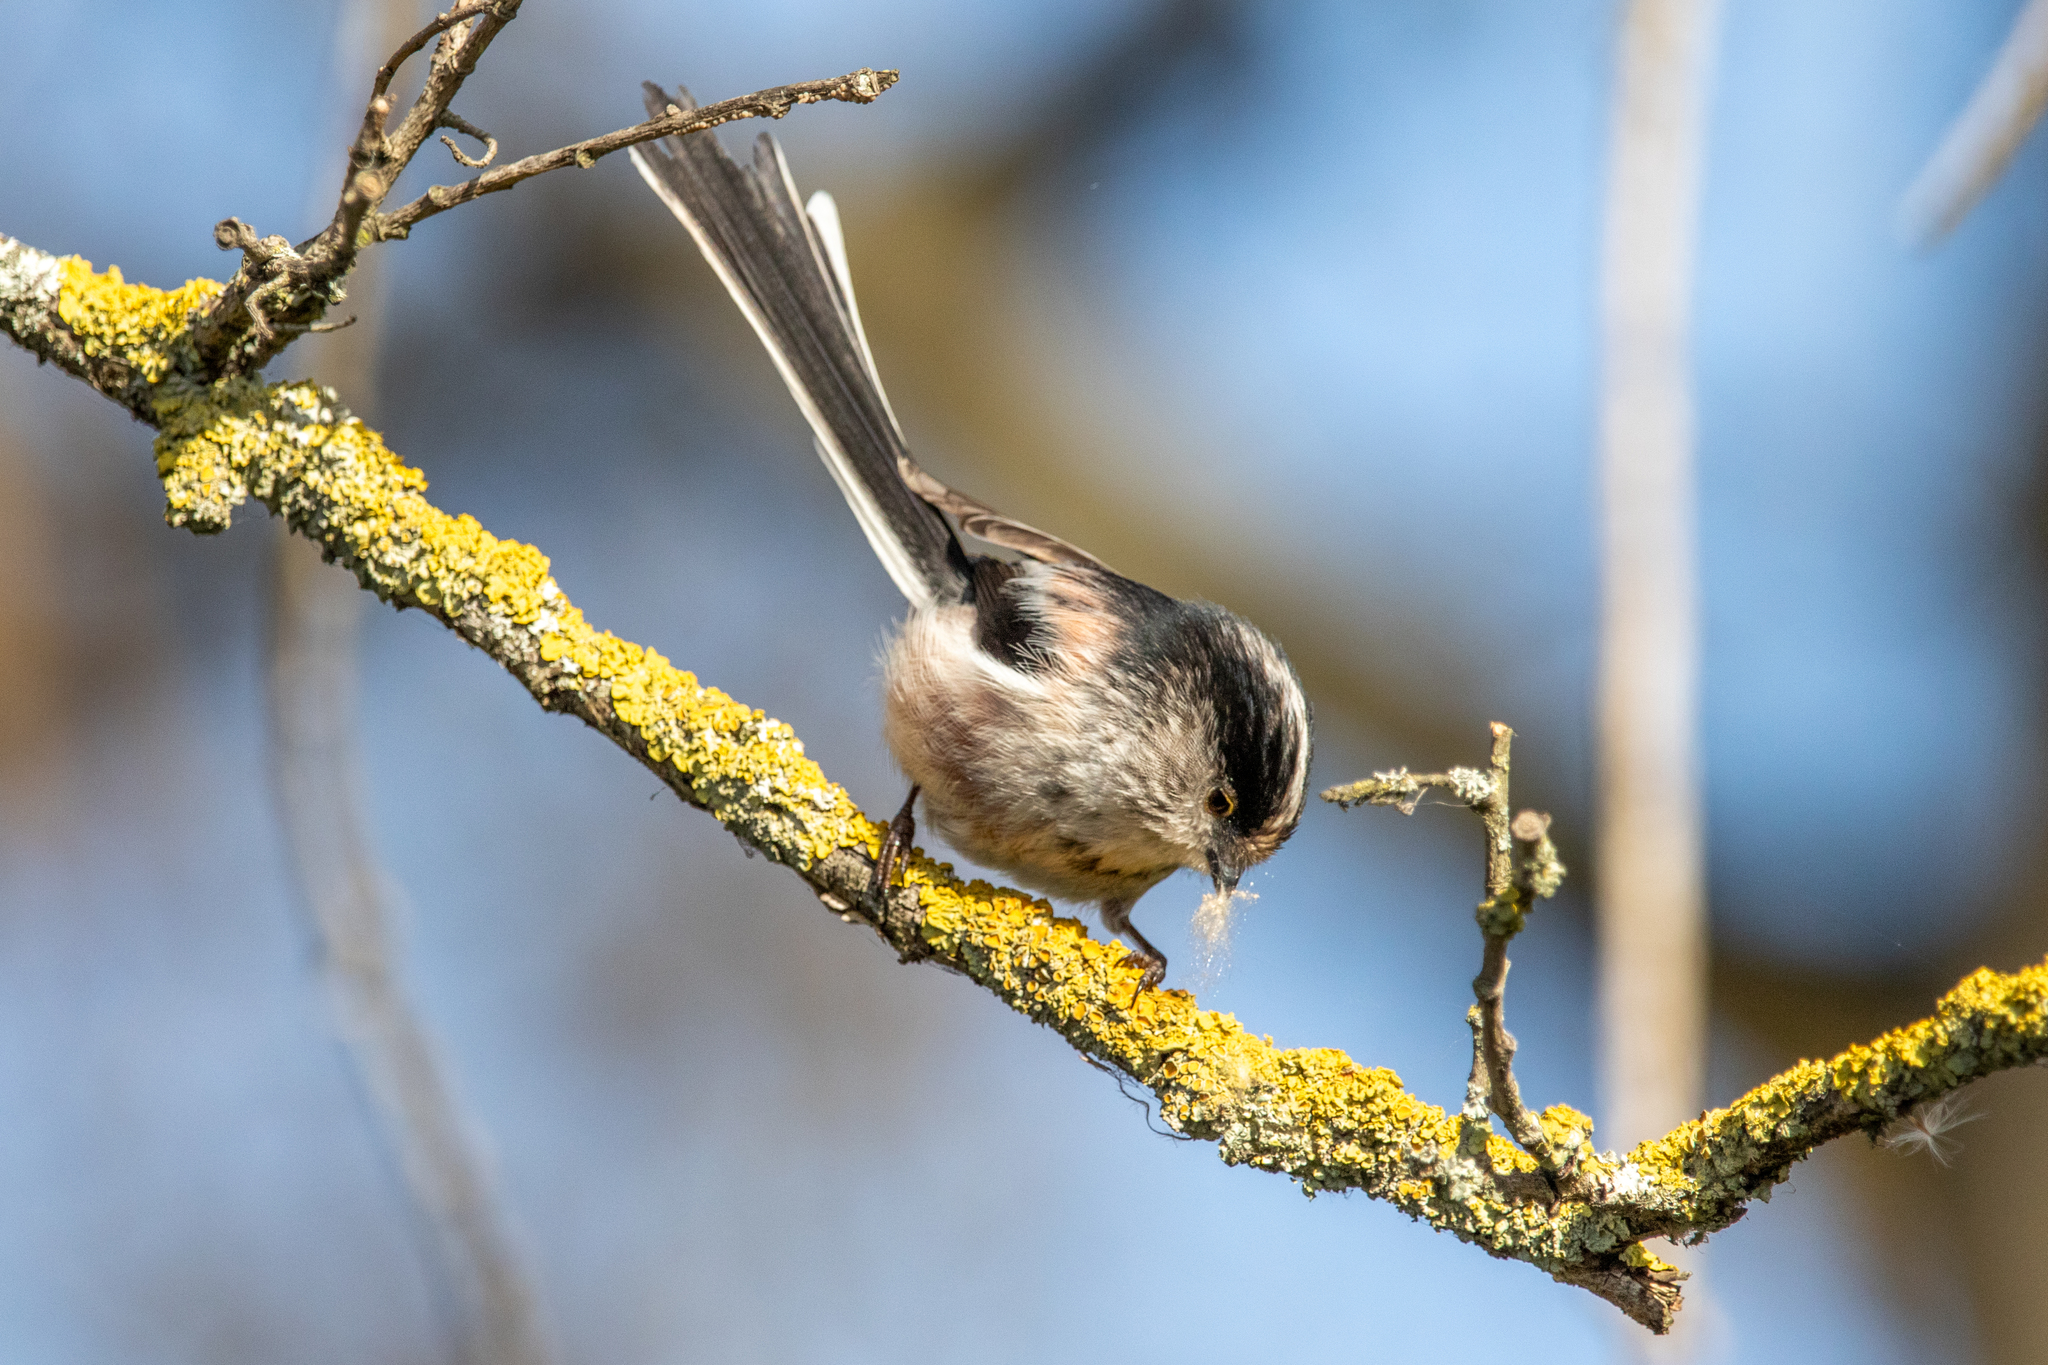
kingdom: Animalia
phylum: Chordata
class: Aves
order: Passeriformes
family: Aegithalidae
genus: Aegithalos
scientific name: Aegithalos caudatus
